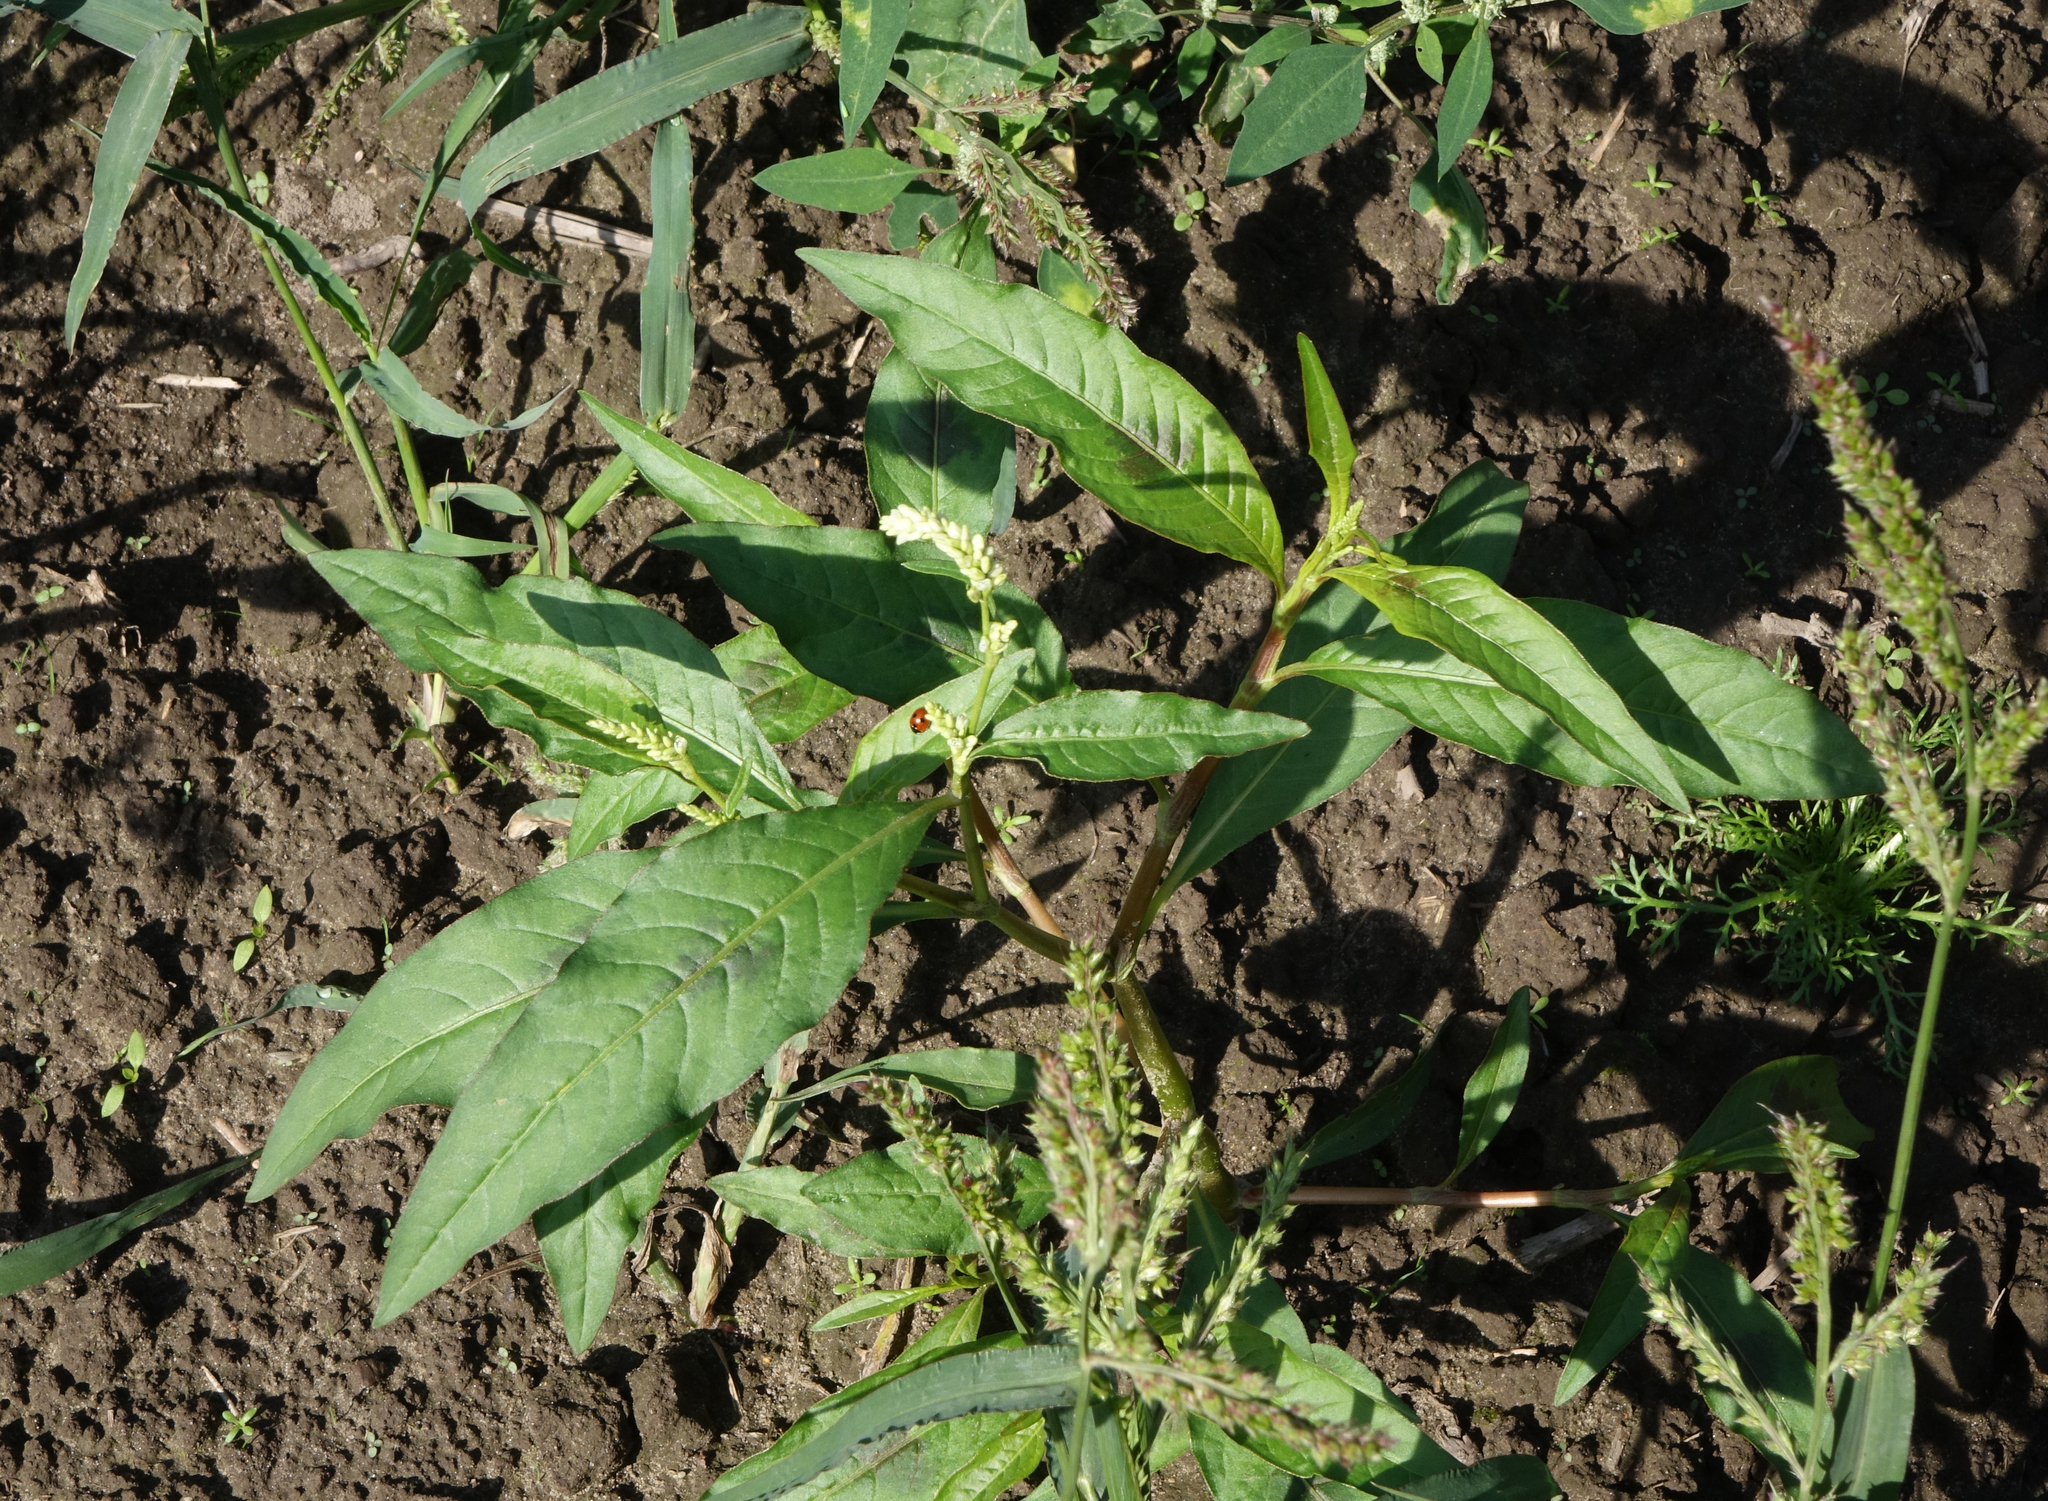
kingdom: Plantae
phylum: Tracheophyta
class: Magnoliopsida
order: Caryophyllales
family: Polygonaceae
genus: Persicaria
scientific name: Persicaria lapathifolia
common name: Curlytop knotweed
